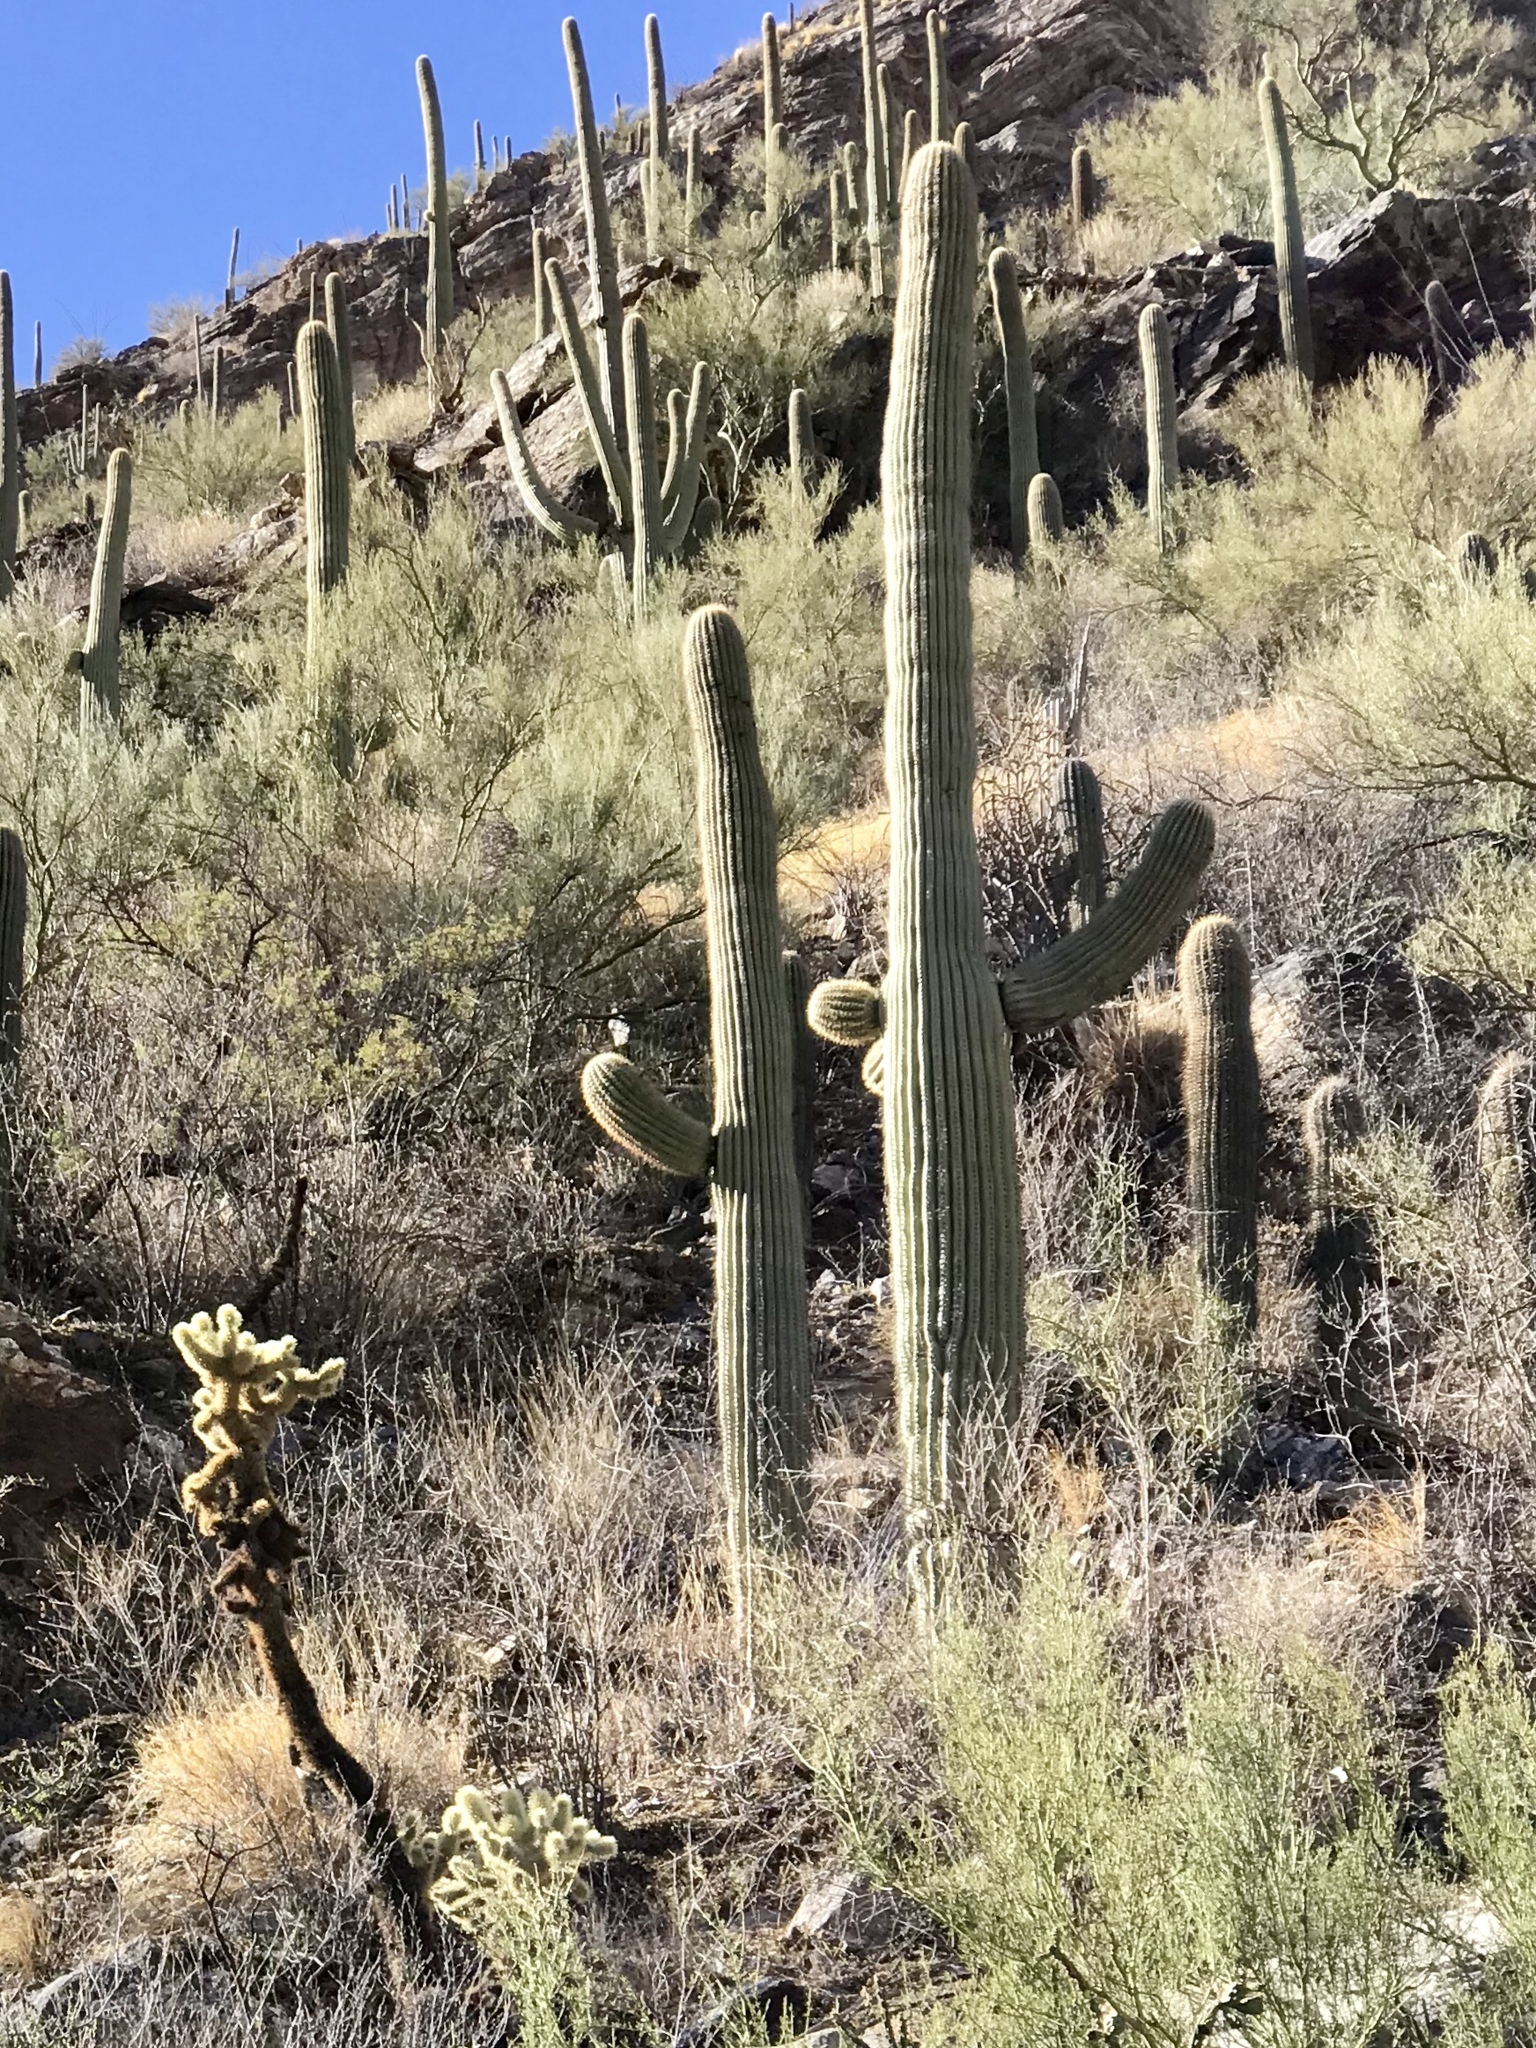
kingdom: Plantae
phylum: Tracheophyta
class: Magnoliopsida
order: Caryophyllales
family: Cactaceae
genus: Carnegiea
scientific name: Carnegiea gigantea
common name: Saguaro
